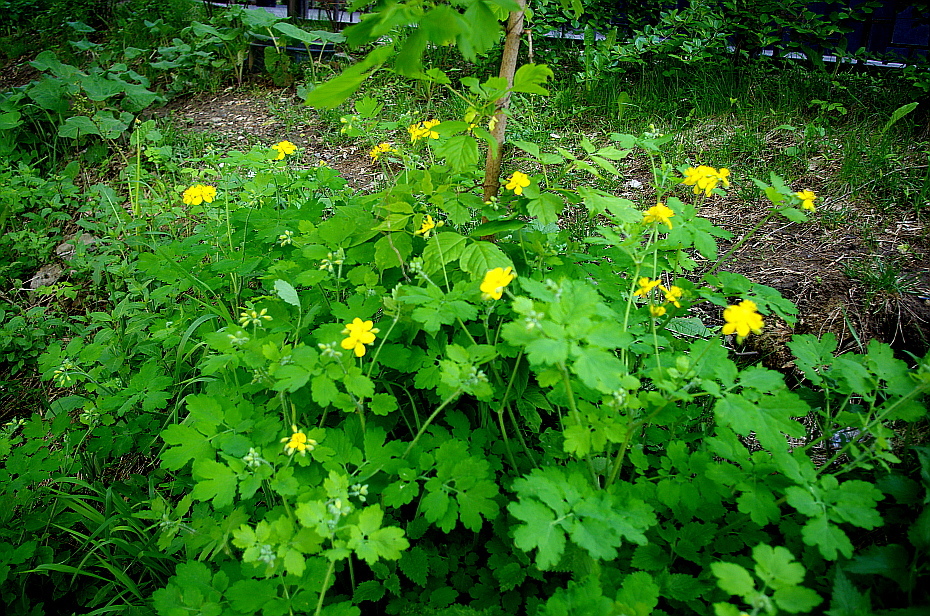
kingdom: Plantae
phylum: Tracheophyta
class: Magnoliopsida
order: Ranunculales
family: Papaveraceae
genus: Chelidonium
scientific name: Chelidonium majus
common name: Greater celandine
